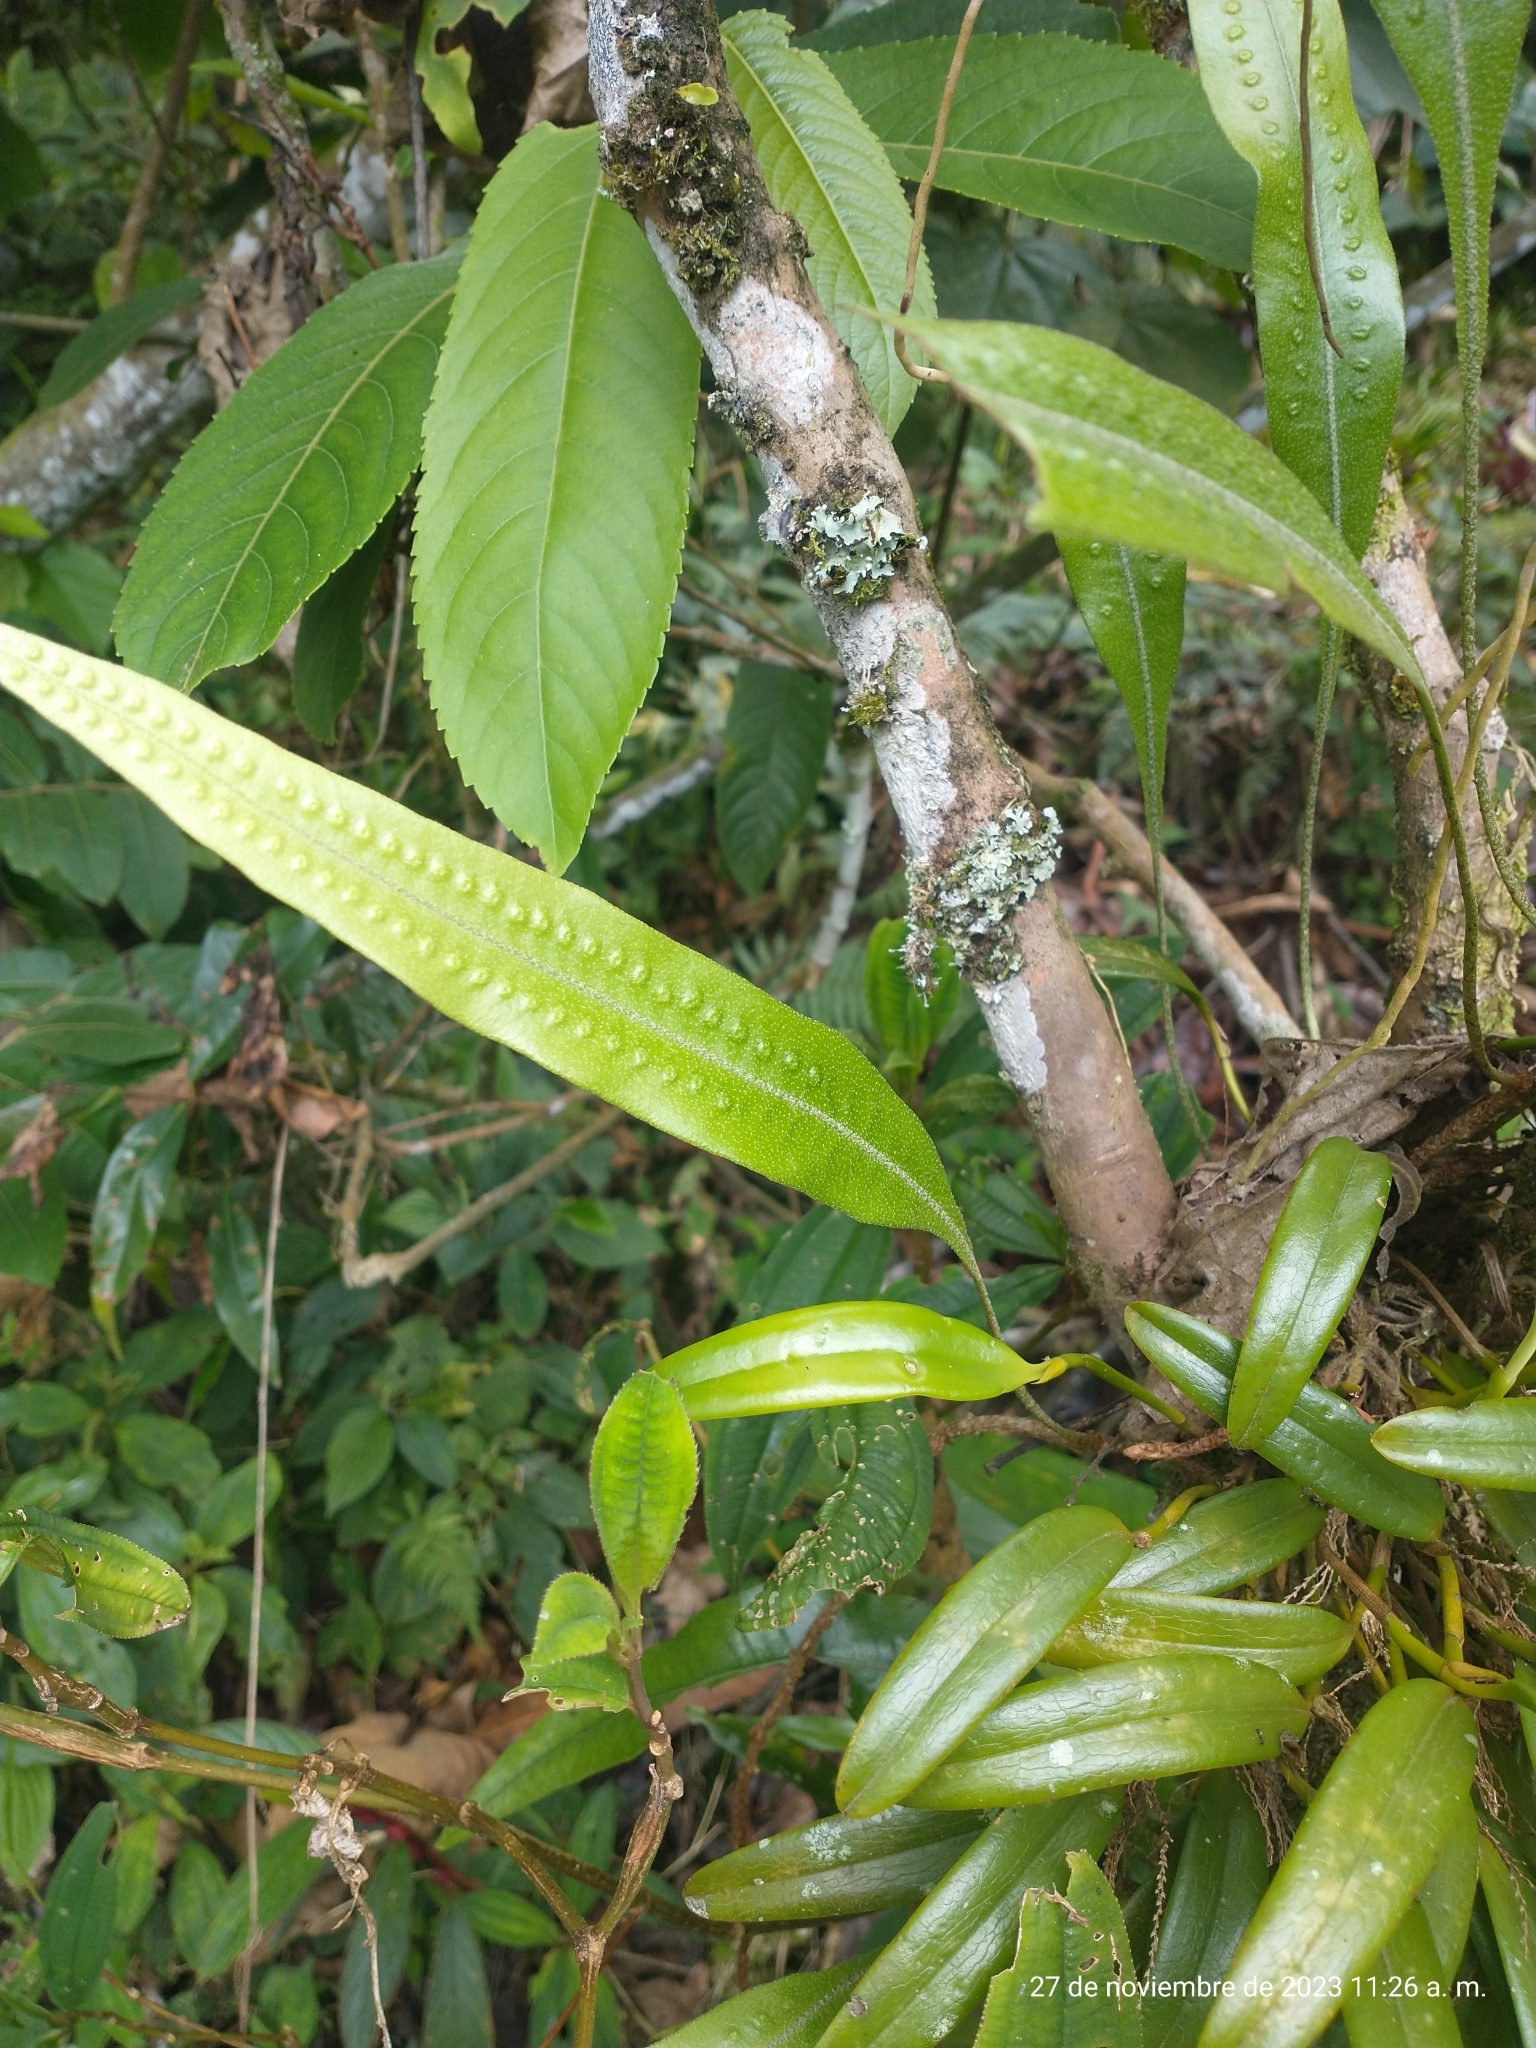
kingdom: Plantae
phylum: Tracheophyta
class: Polypodiopsida
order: Polypodiales
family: Polypodiaceae
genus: Microgramma
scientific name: Microgramma percussa
